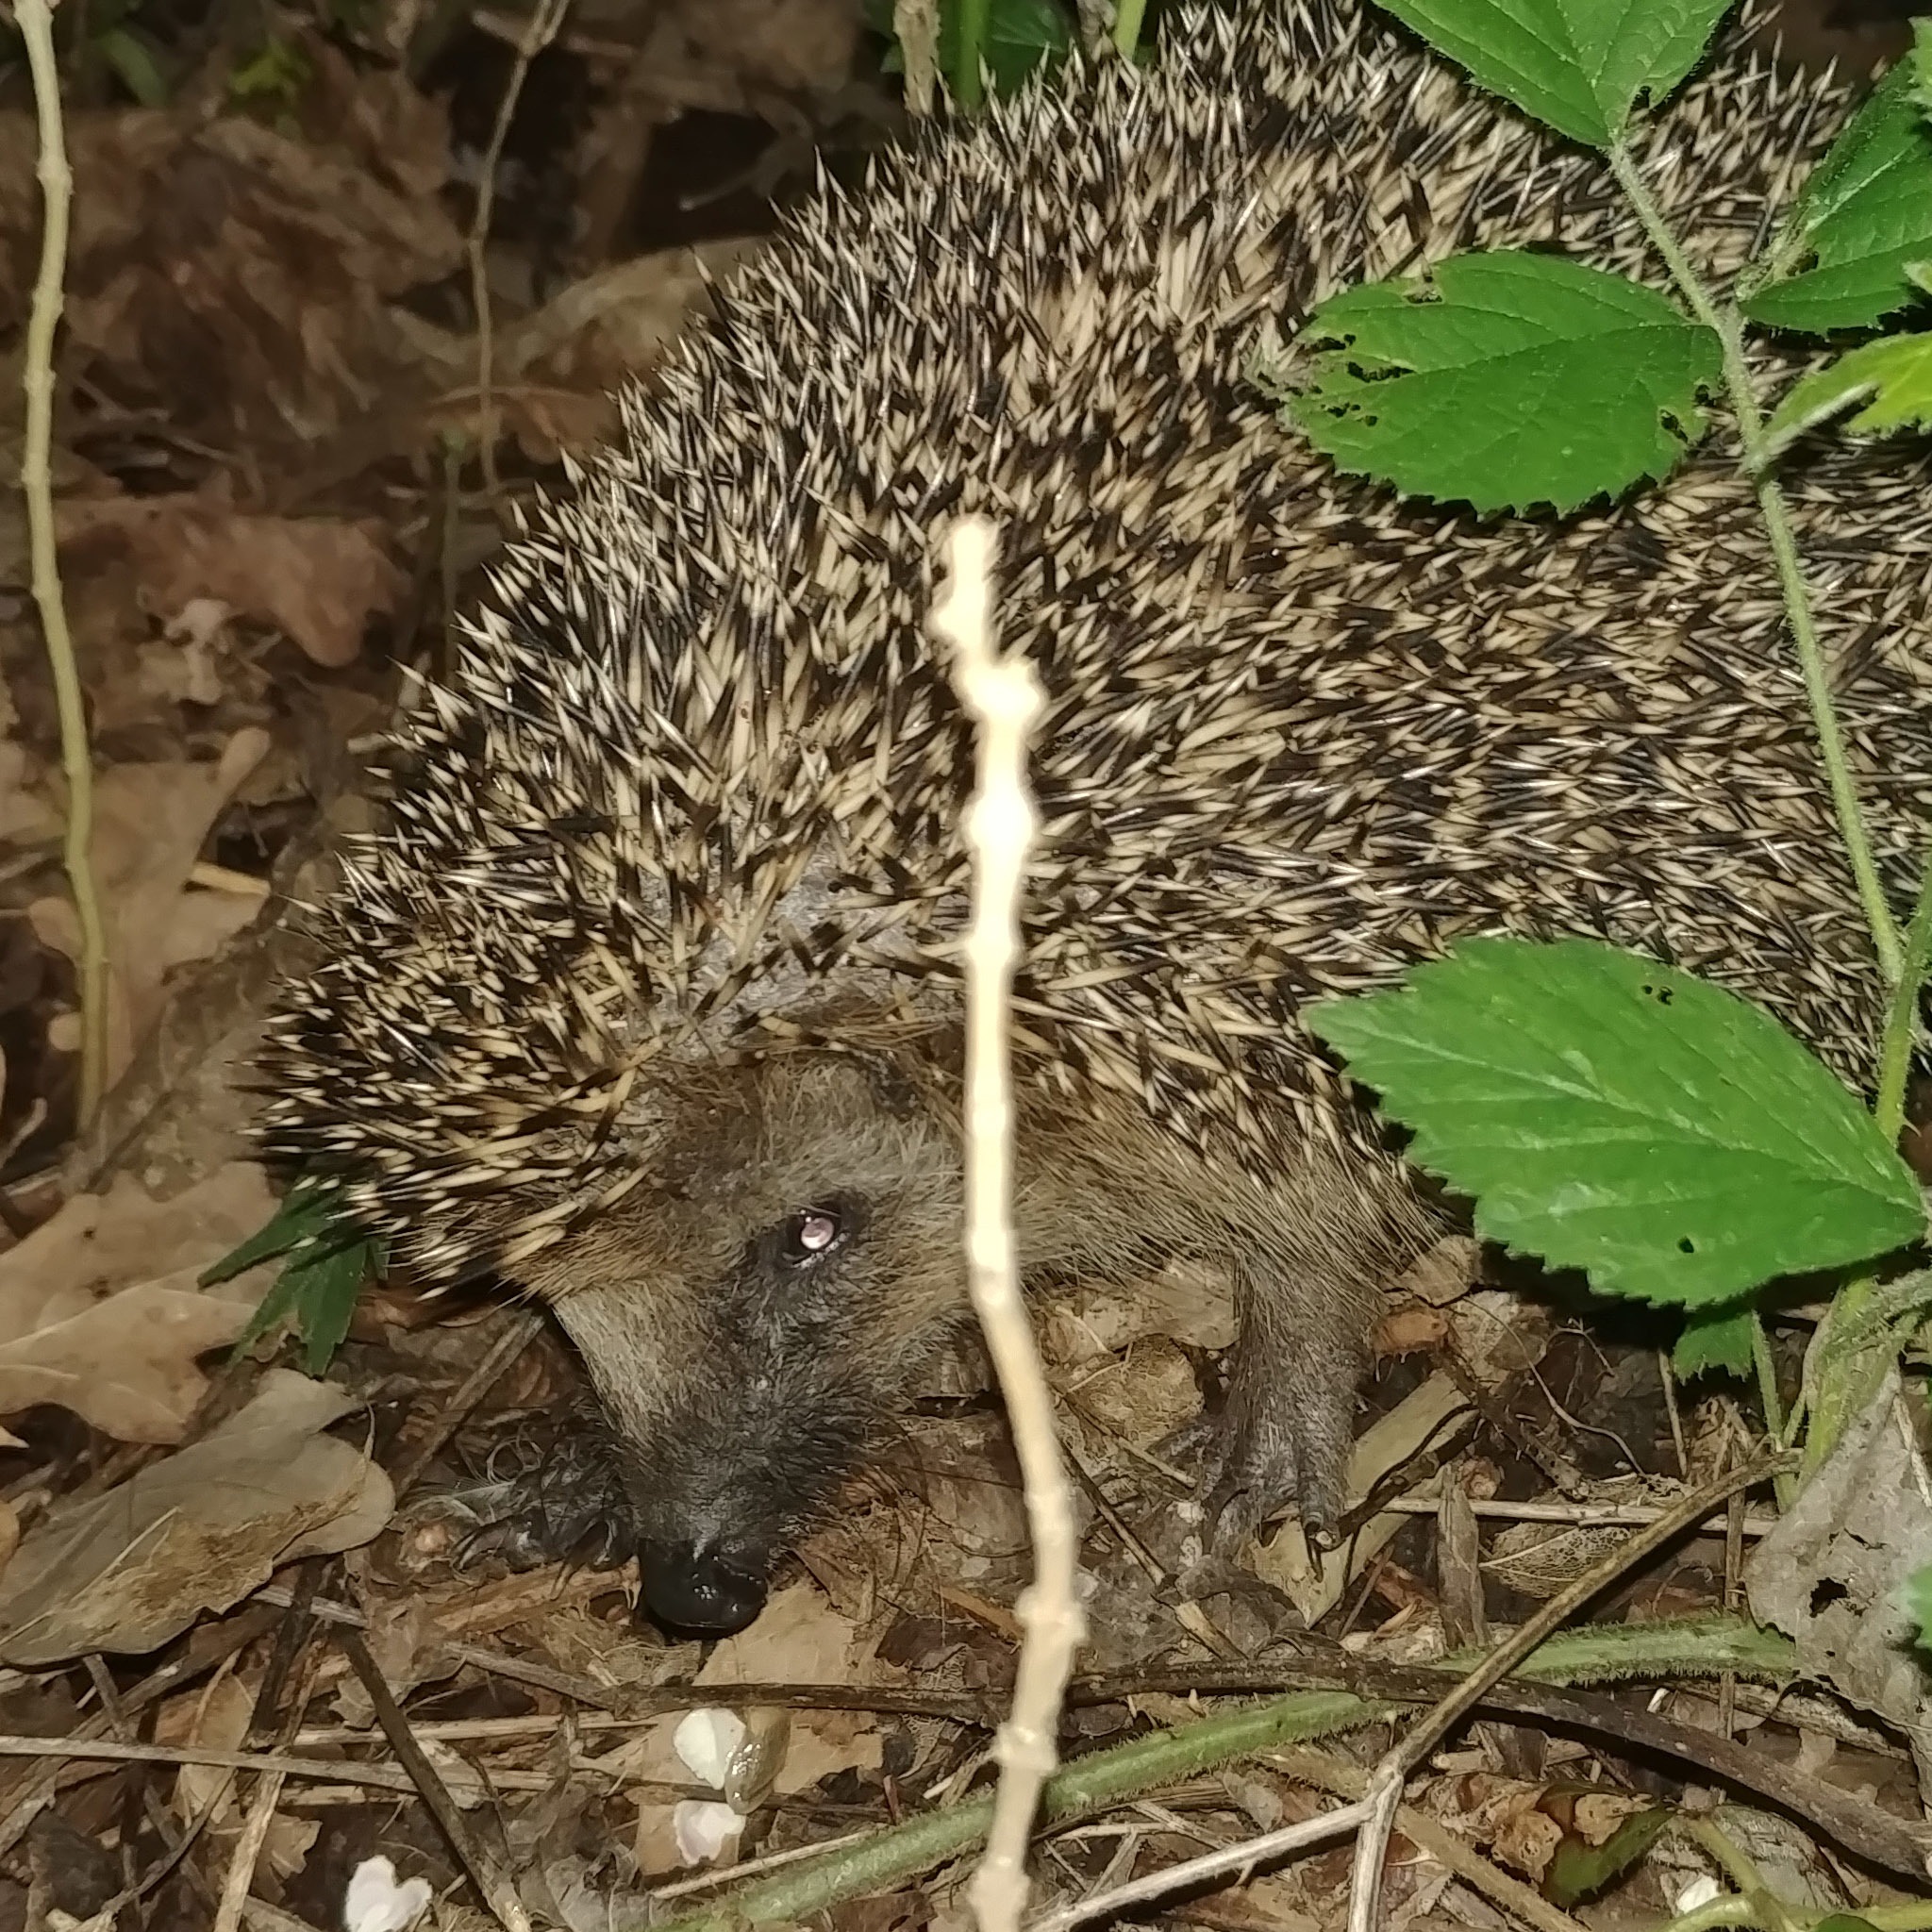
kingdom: Animalia
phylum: Chordata
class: Mammalia
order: Erinaceomorpha
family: Erinaceidae
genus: Erinaceus
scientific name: Erinaceus europaeus
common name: West european hedgehog
